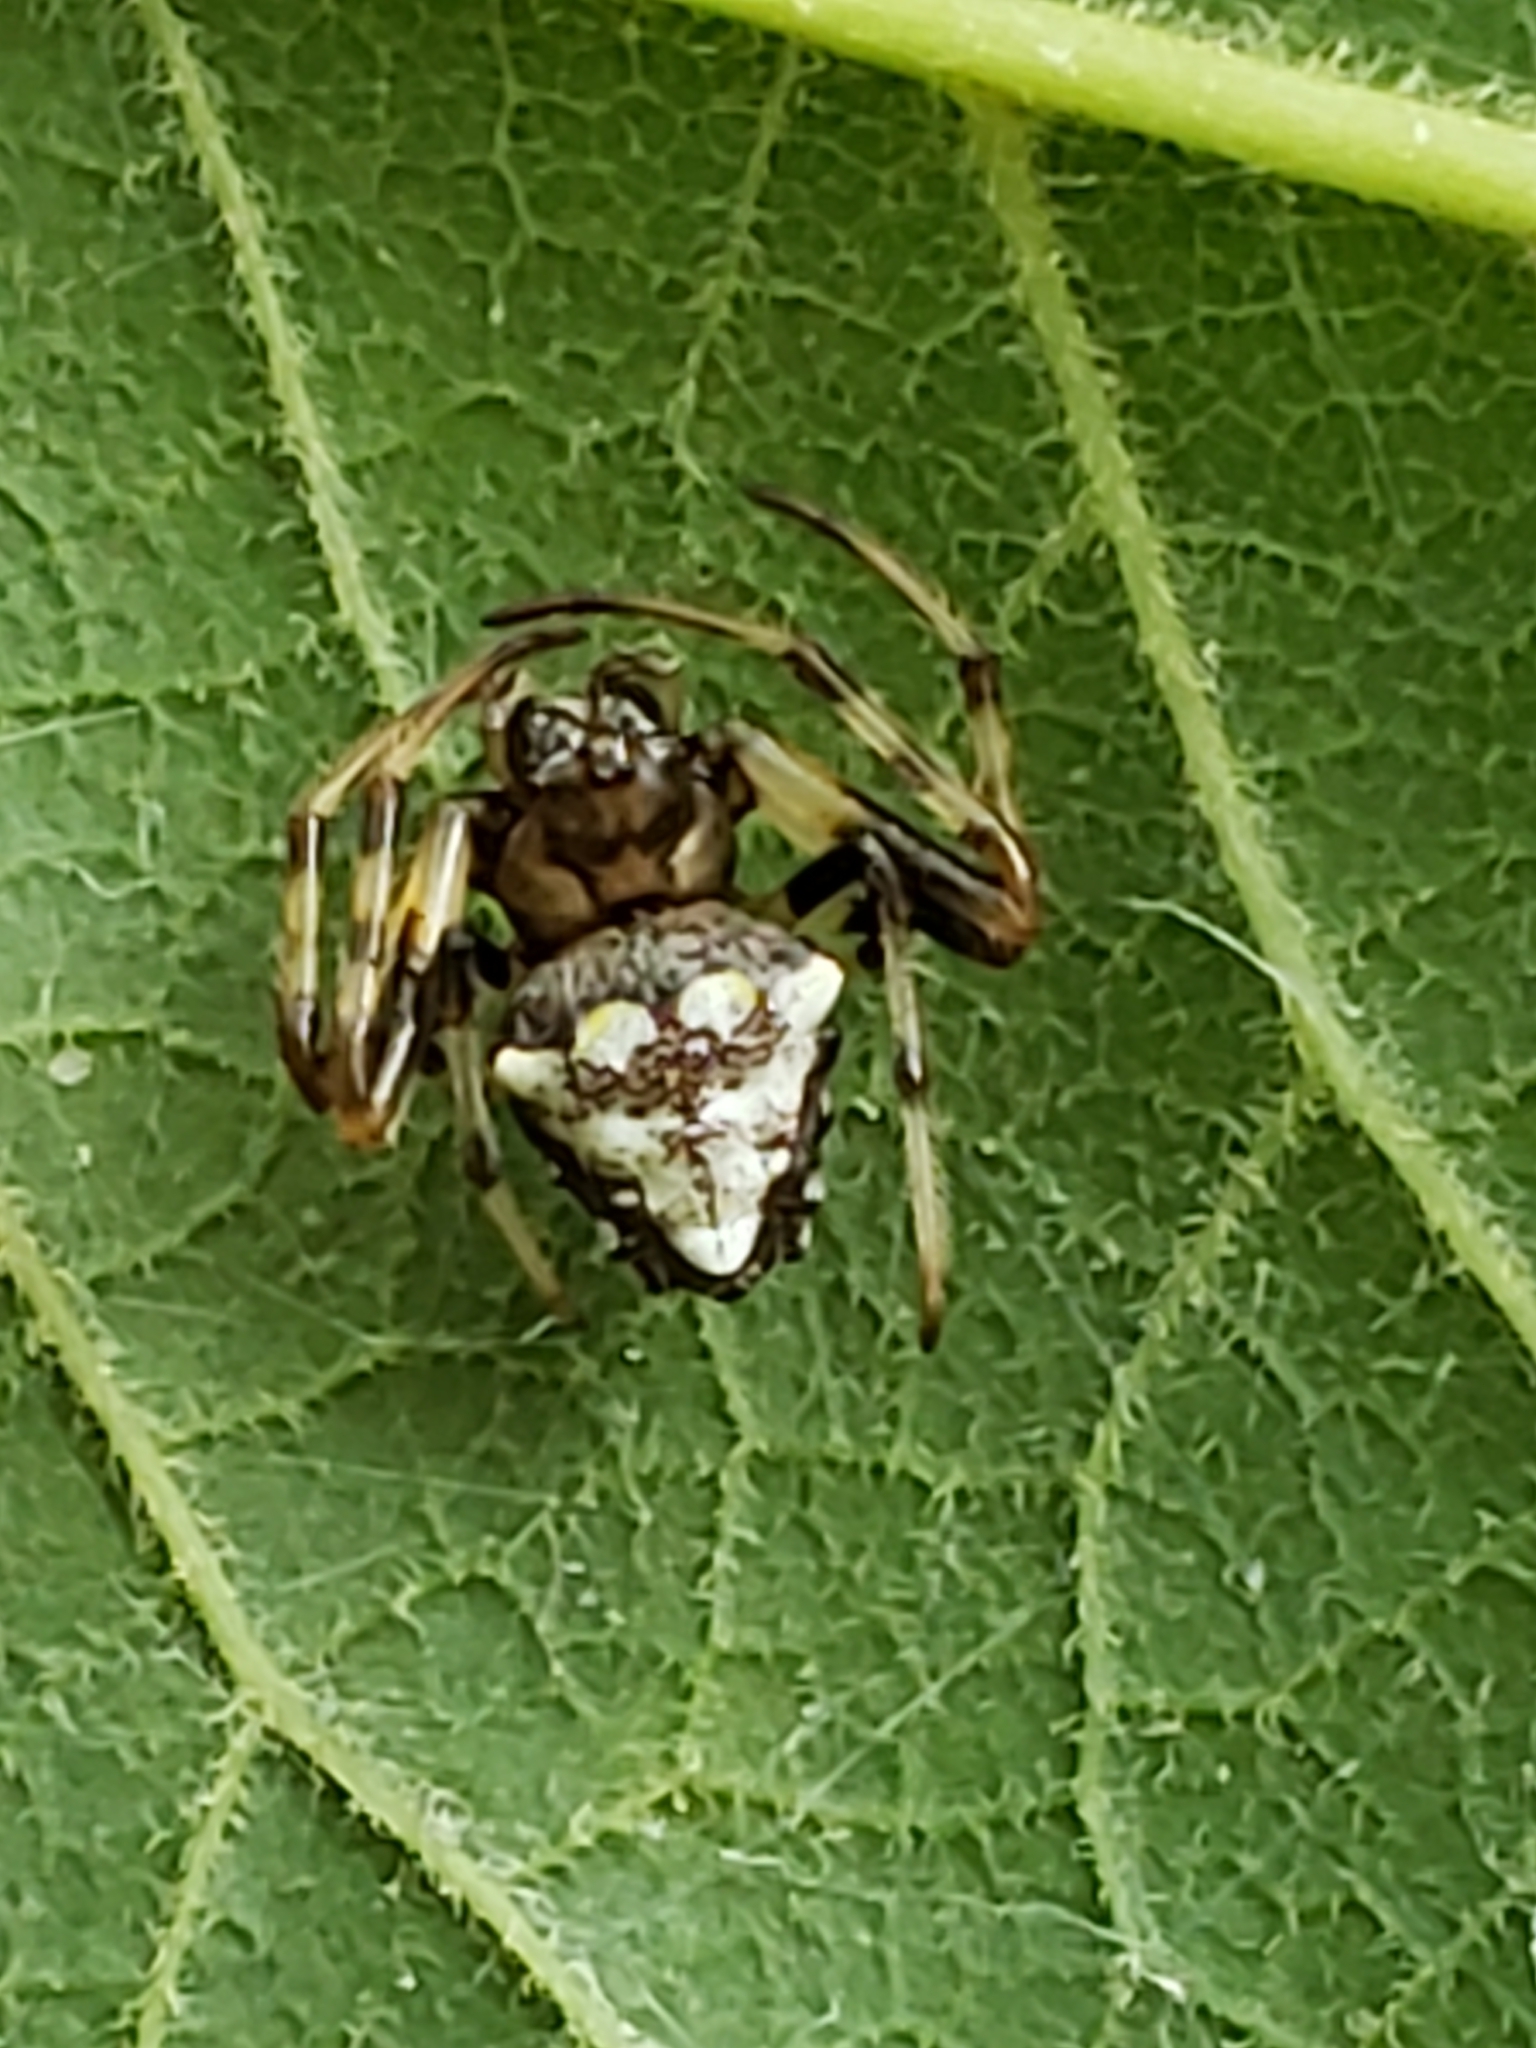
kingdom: Animalia
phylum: Arthropoda
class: Arachnida
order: Araneae
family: Araneidae
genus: Verrucosa
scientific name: Verrucosa arenata
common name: Orb weavers
